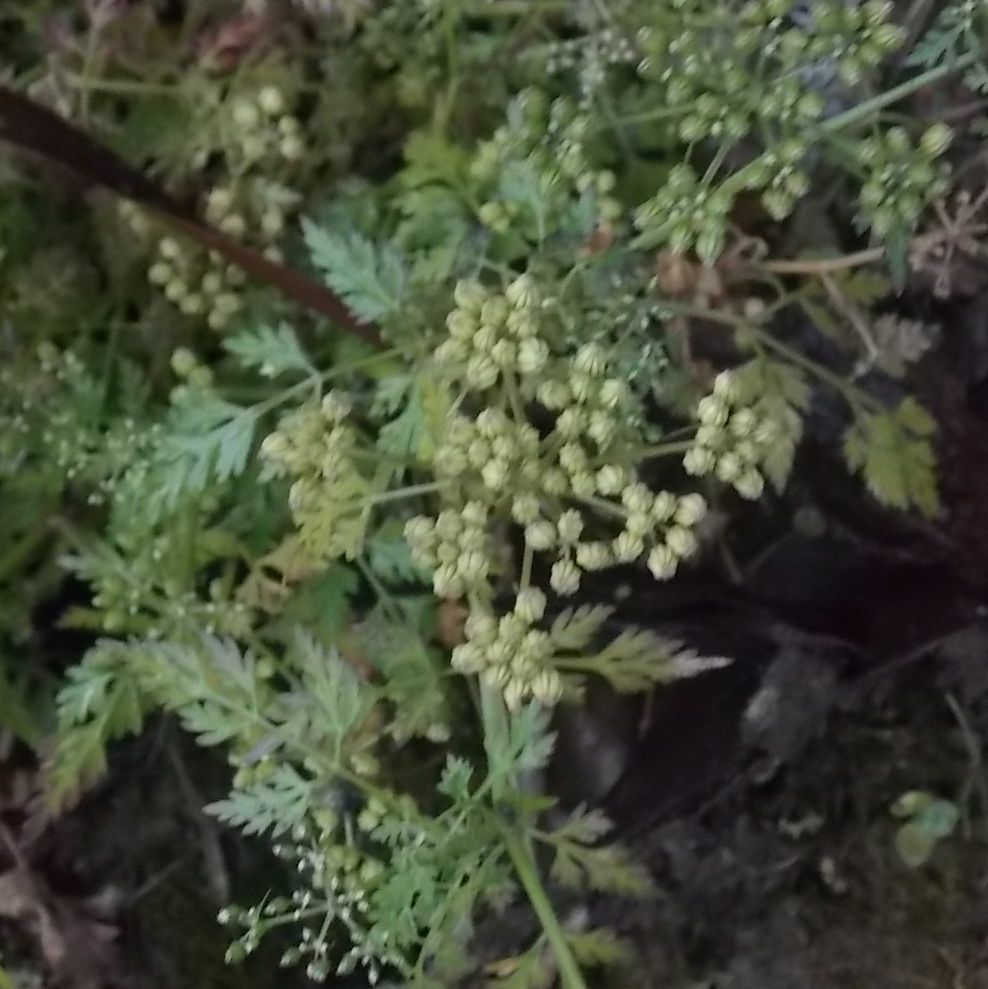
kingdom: Plantae
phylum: Tracheophyta
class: Magnoliopsida
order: Apiales
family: Apiaceae
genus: Aethusa
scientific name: Aethusa cynapium
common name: Fool's parsley
